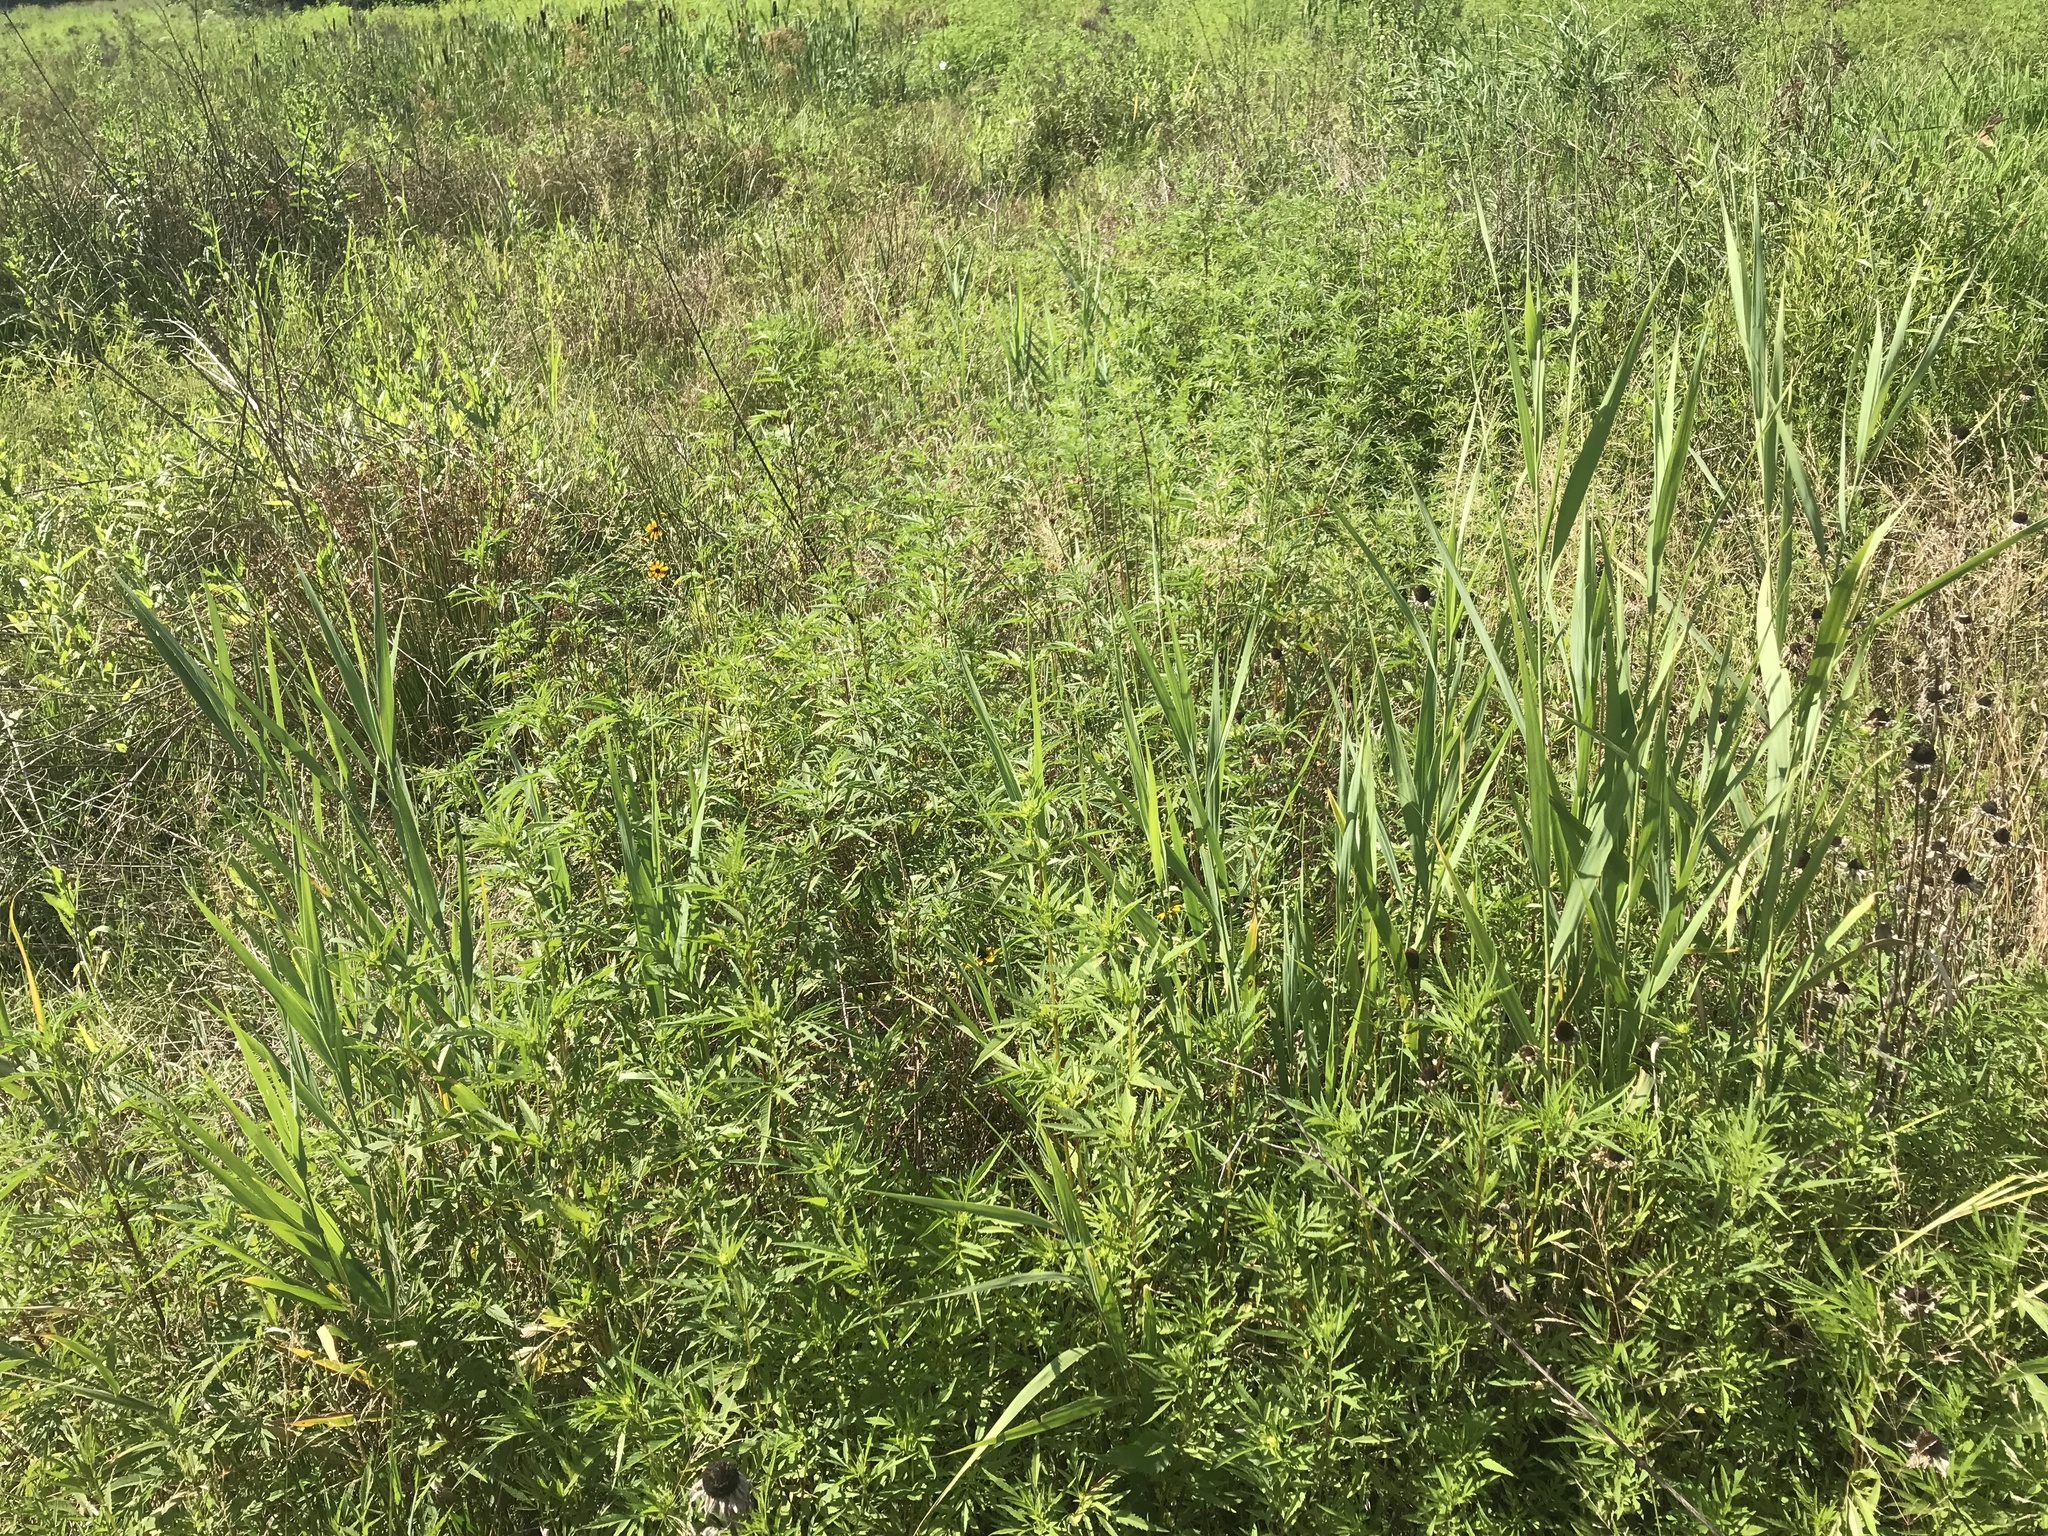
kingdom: Plantae
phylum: Tracheophyta
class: Liliopsida
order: Poales
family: Poaceae
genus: Phragmites
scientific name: Phragmites australis
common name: Common reed
